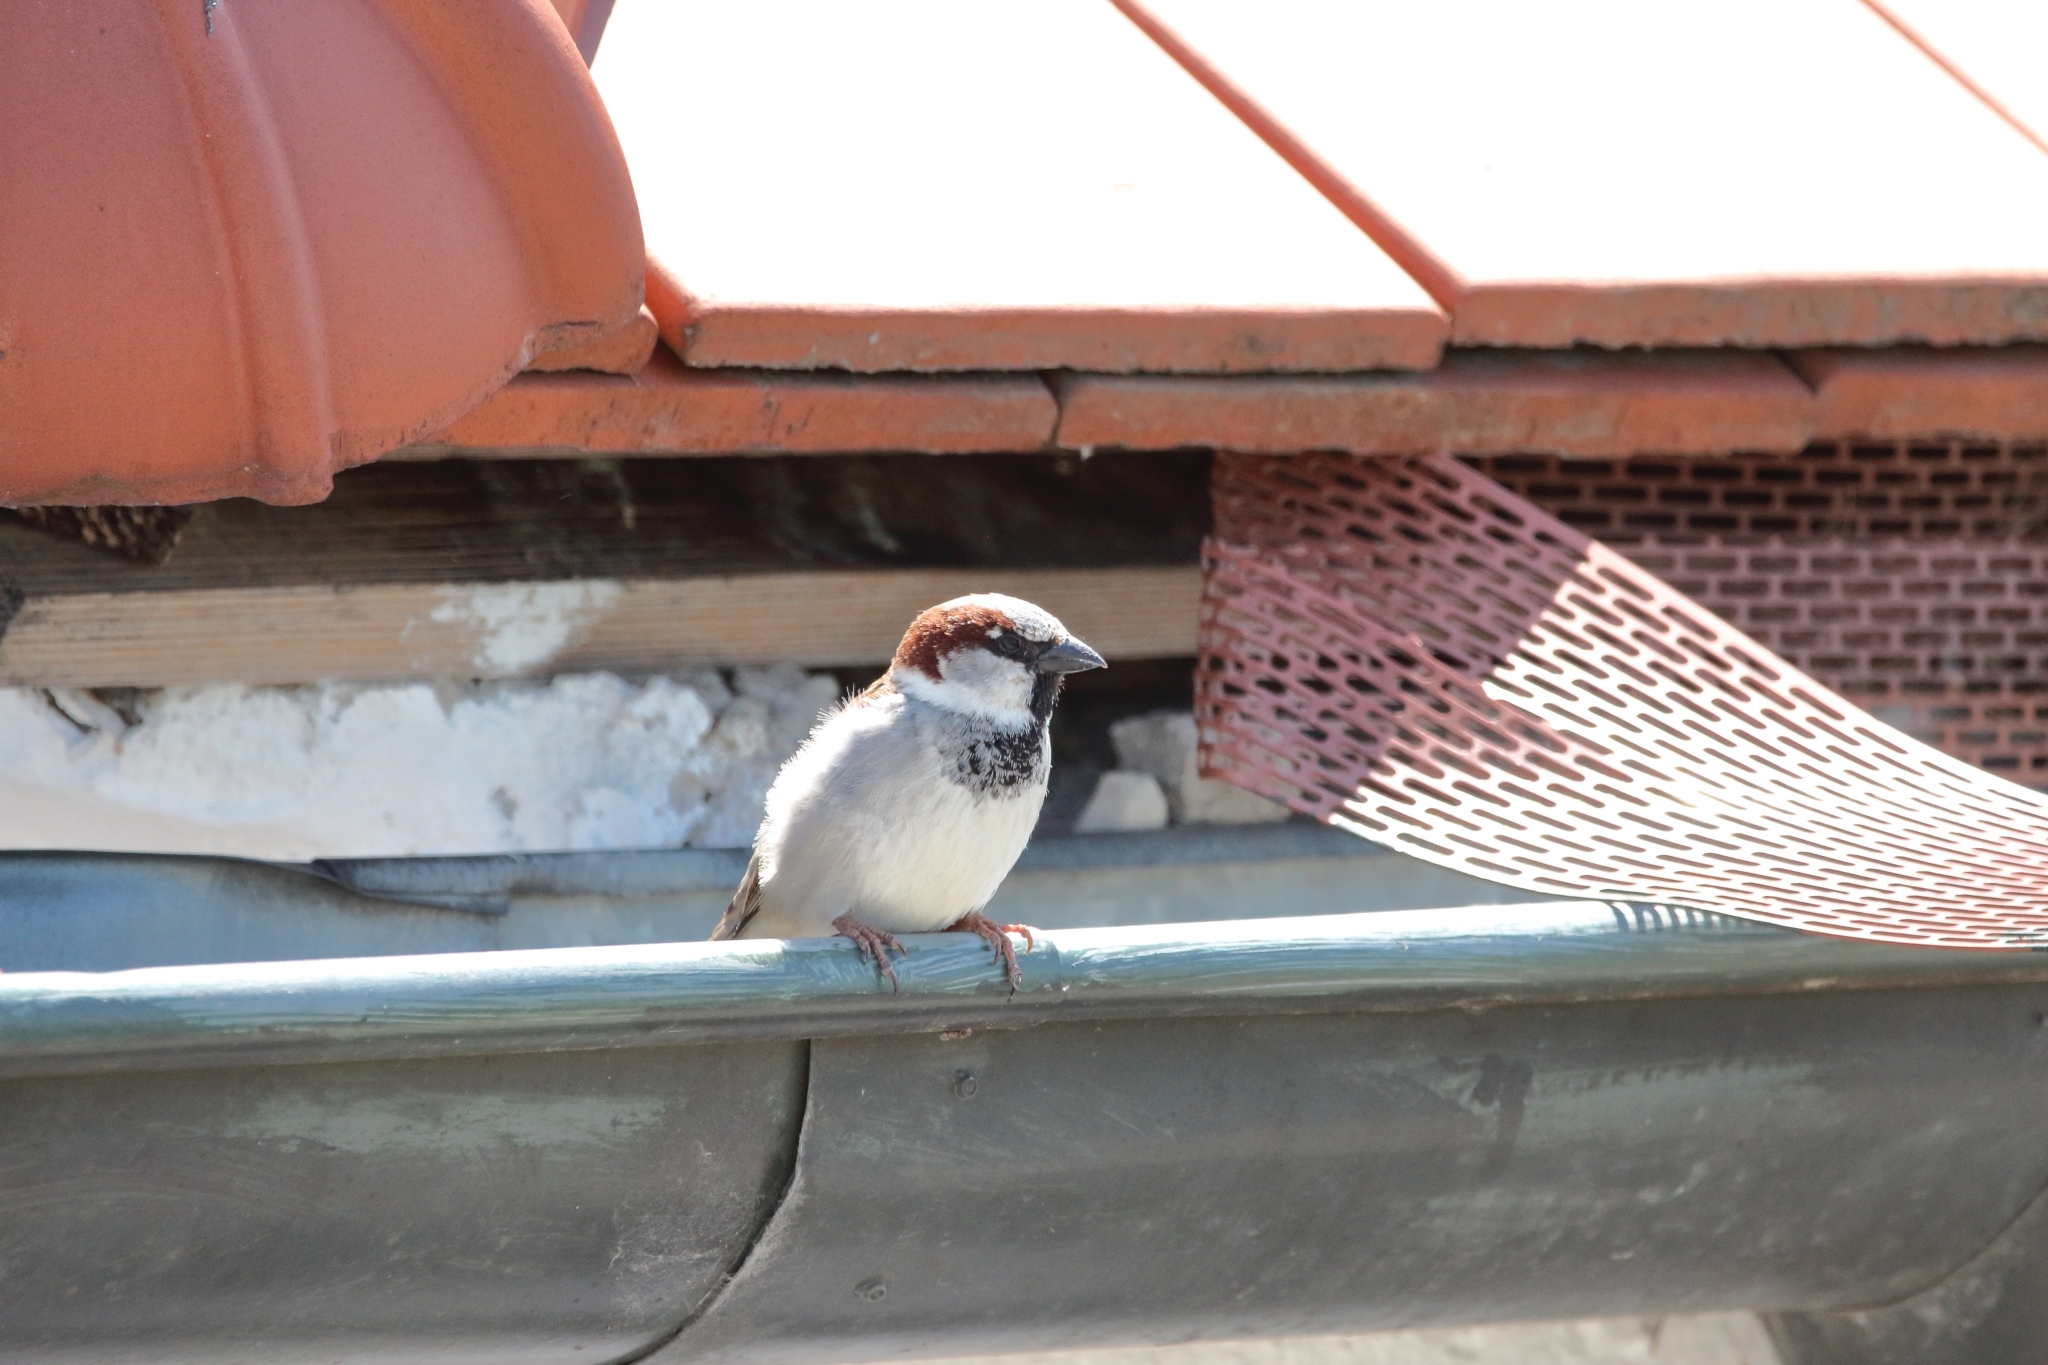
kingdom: Animalia
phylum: Chordata
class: Aves
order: Passeriformes
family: Passeridae
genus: Passer
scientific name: Passer domesticus
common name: House sparrow
